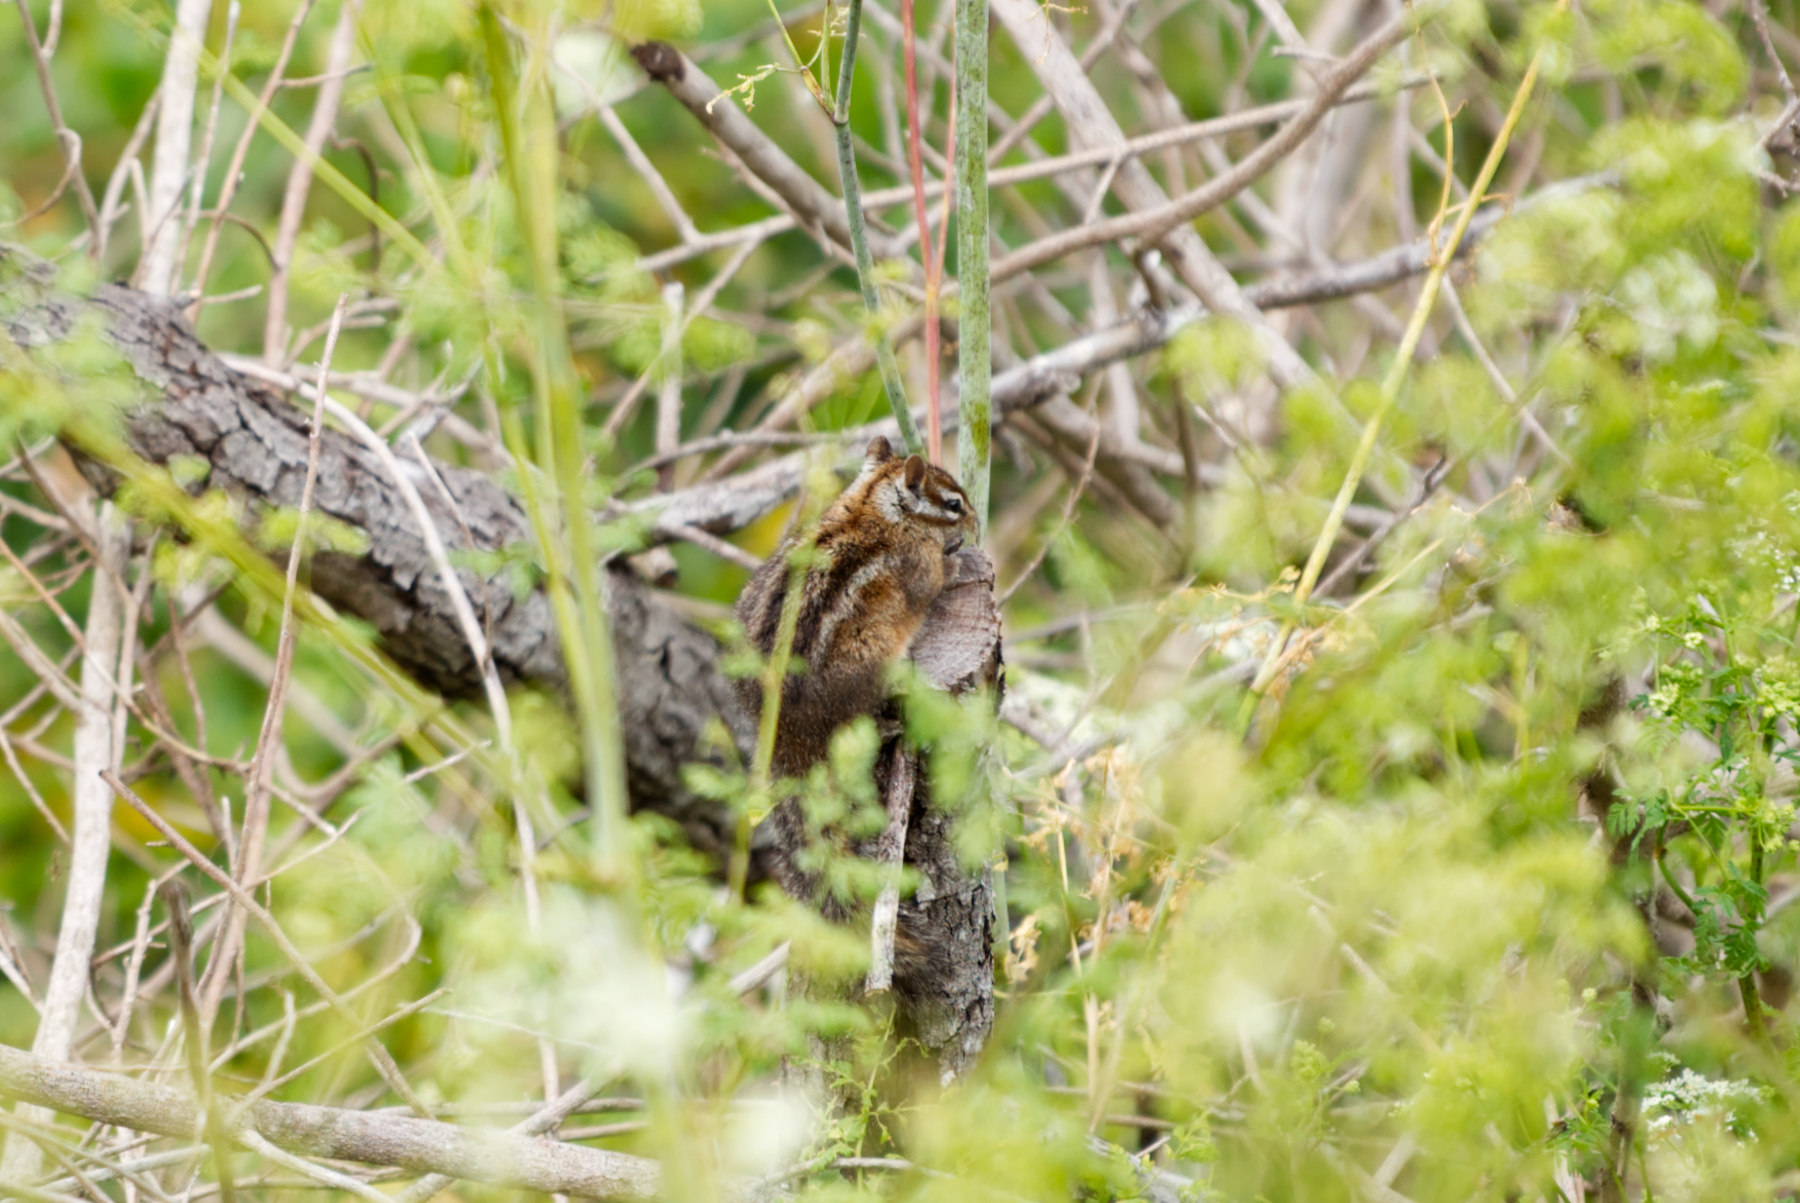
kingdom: Animalia
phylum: Chordata
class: Mammalia
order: Rodentia
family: Sciuridae
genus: Tamias
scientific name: Tamias merriami
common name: Merriam's chipmunk
